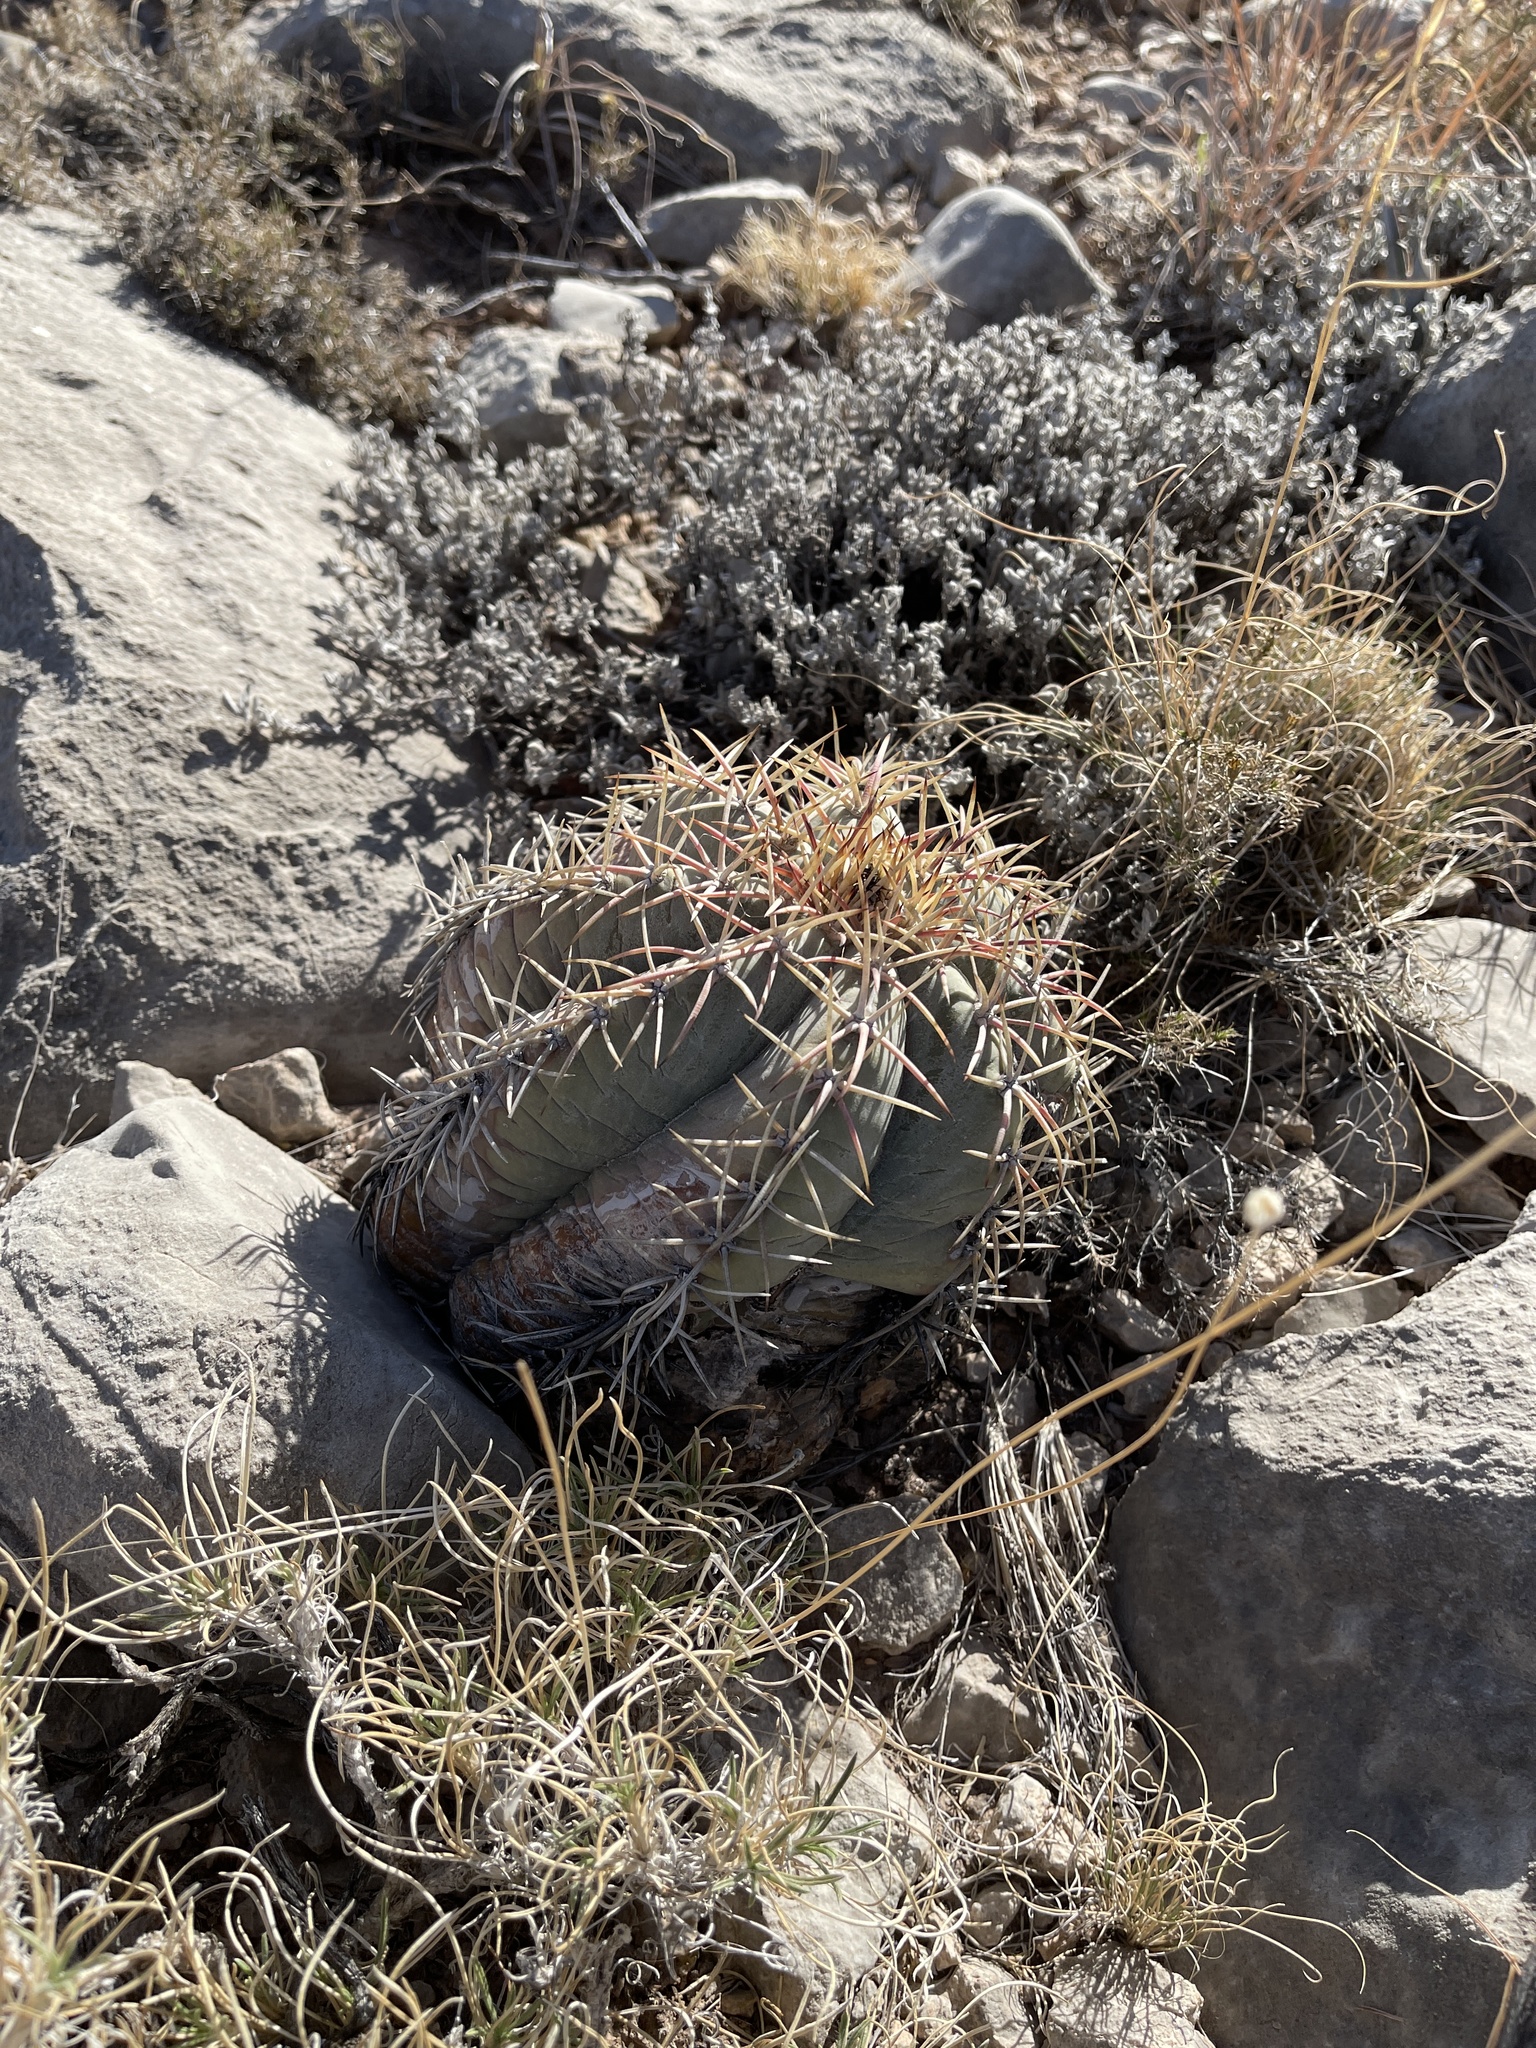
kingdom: Plantae
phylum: Tracheophyta
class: Magnoliopsida
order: Caryophyllales
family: Cactaceae
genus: Echinocactus
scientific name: Echinocactus horizonthalonius
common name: Devilshead
